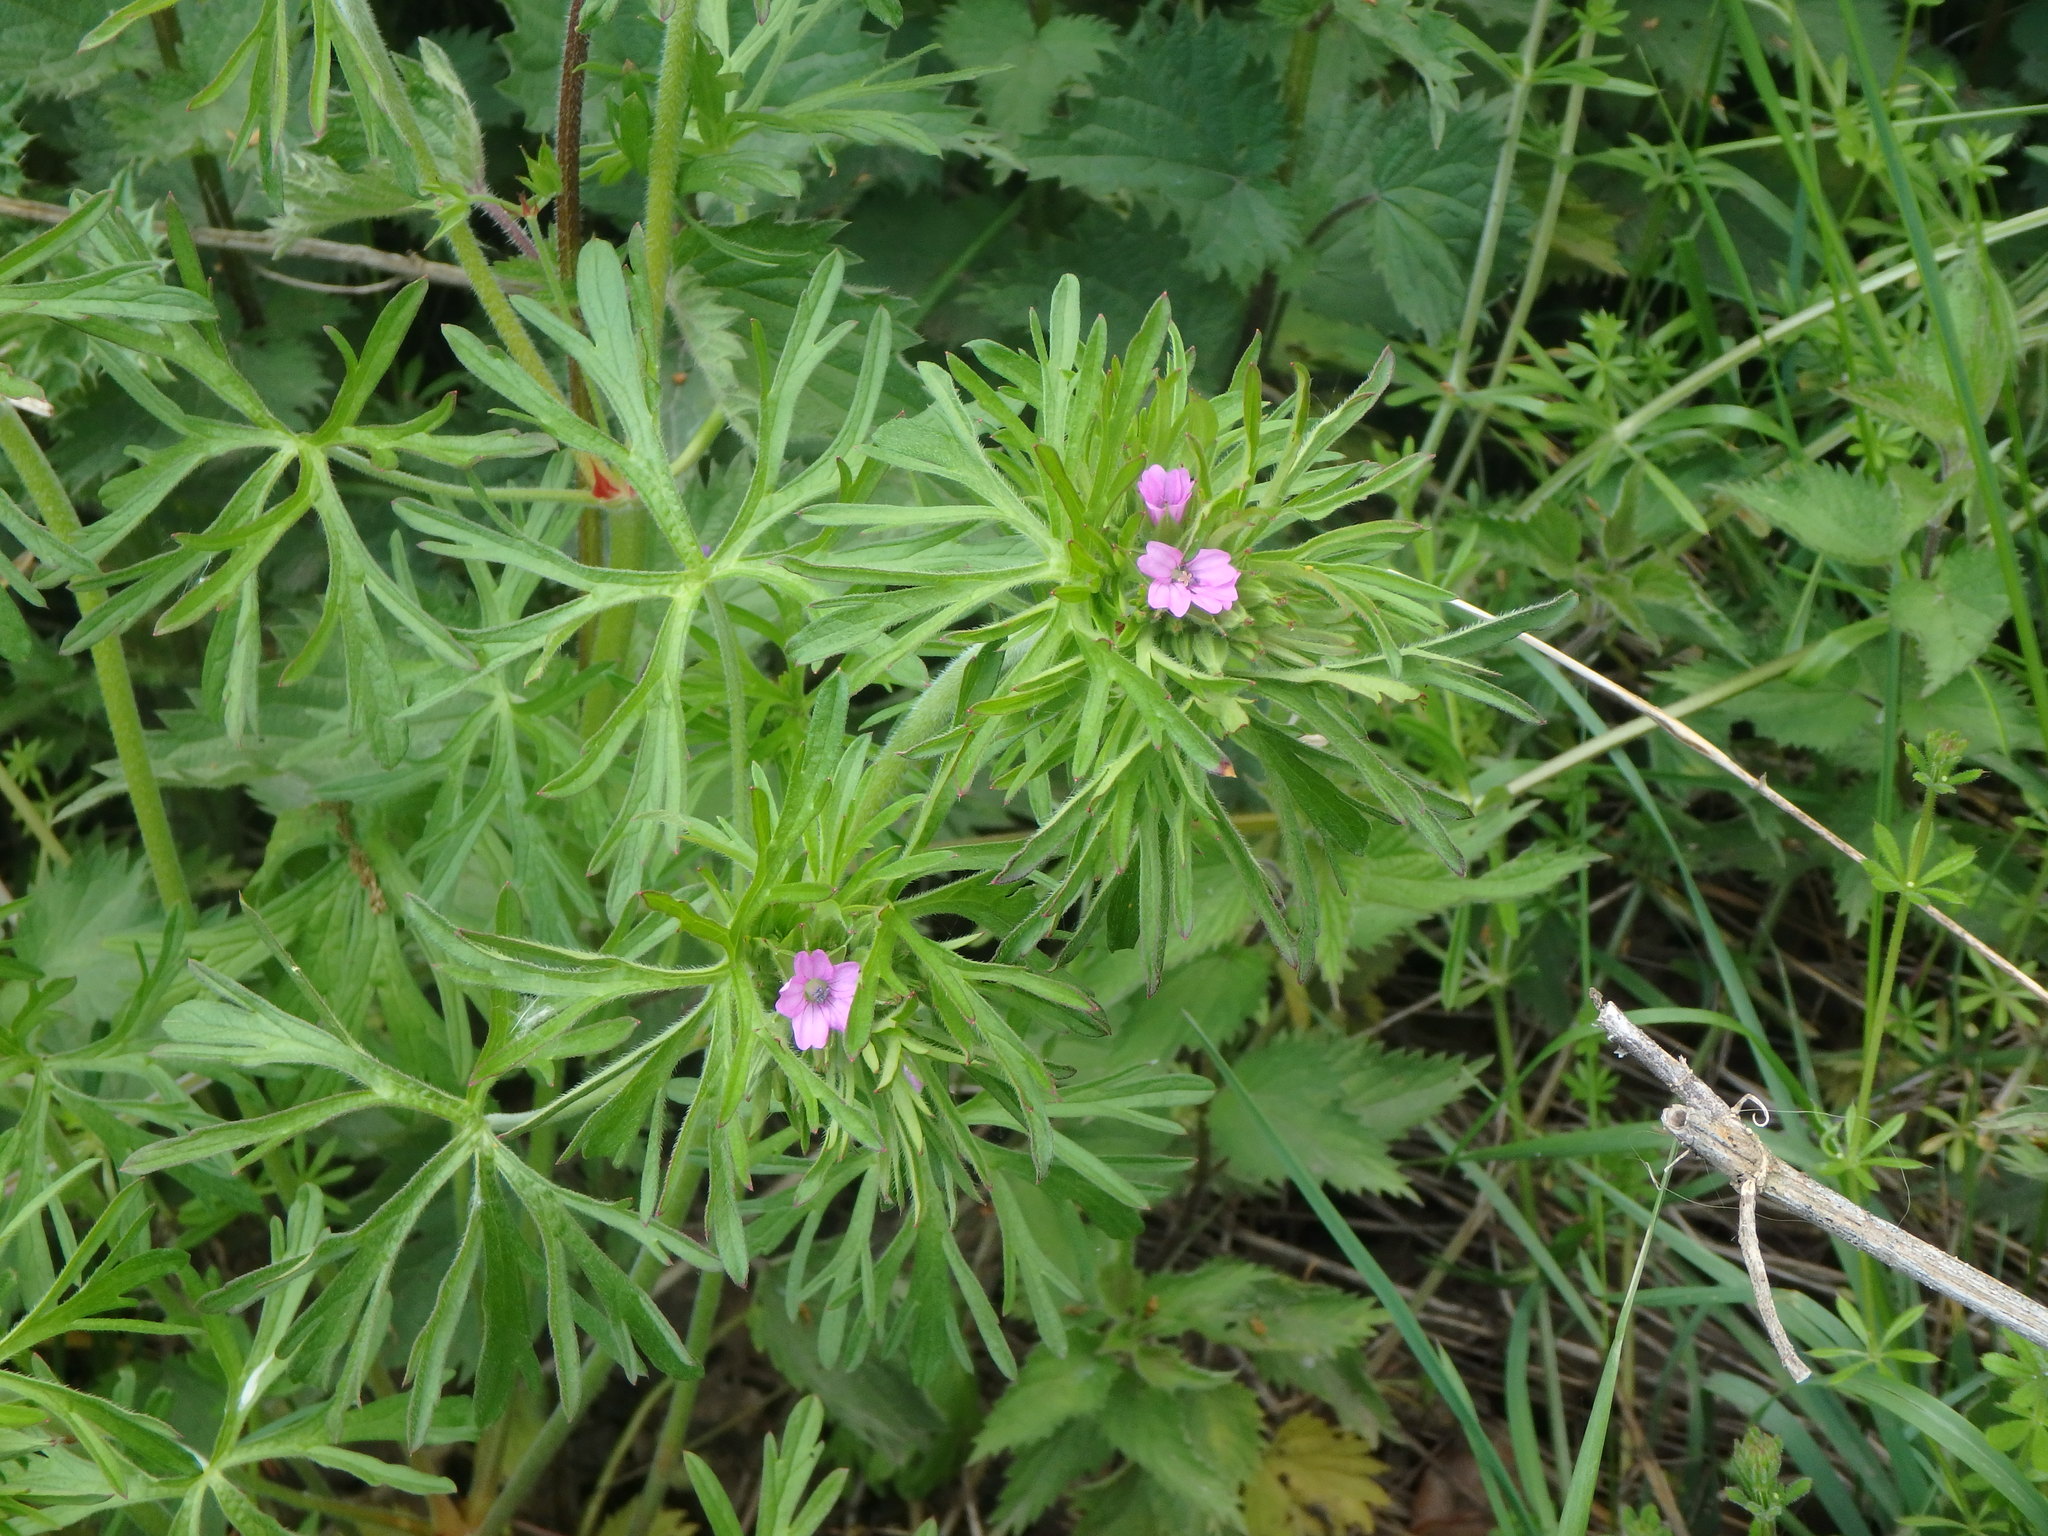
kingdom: Plantae
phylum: Tracheophyta
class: Magnoliopsida
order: Geraniales
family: Geraniaceae
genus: Geranium
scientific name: Geranium dissectum
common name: Cut-leaved crane's-bill
